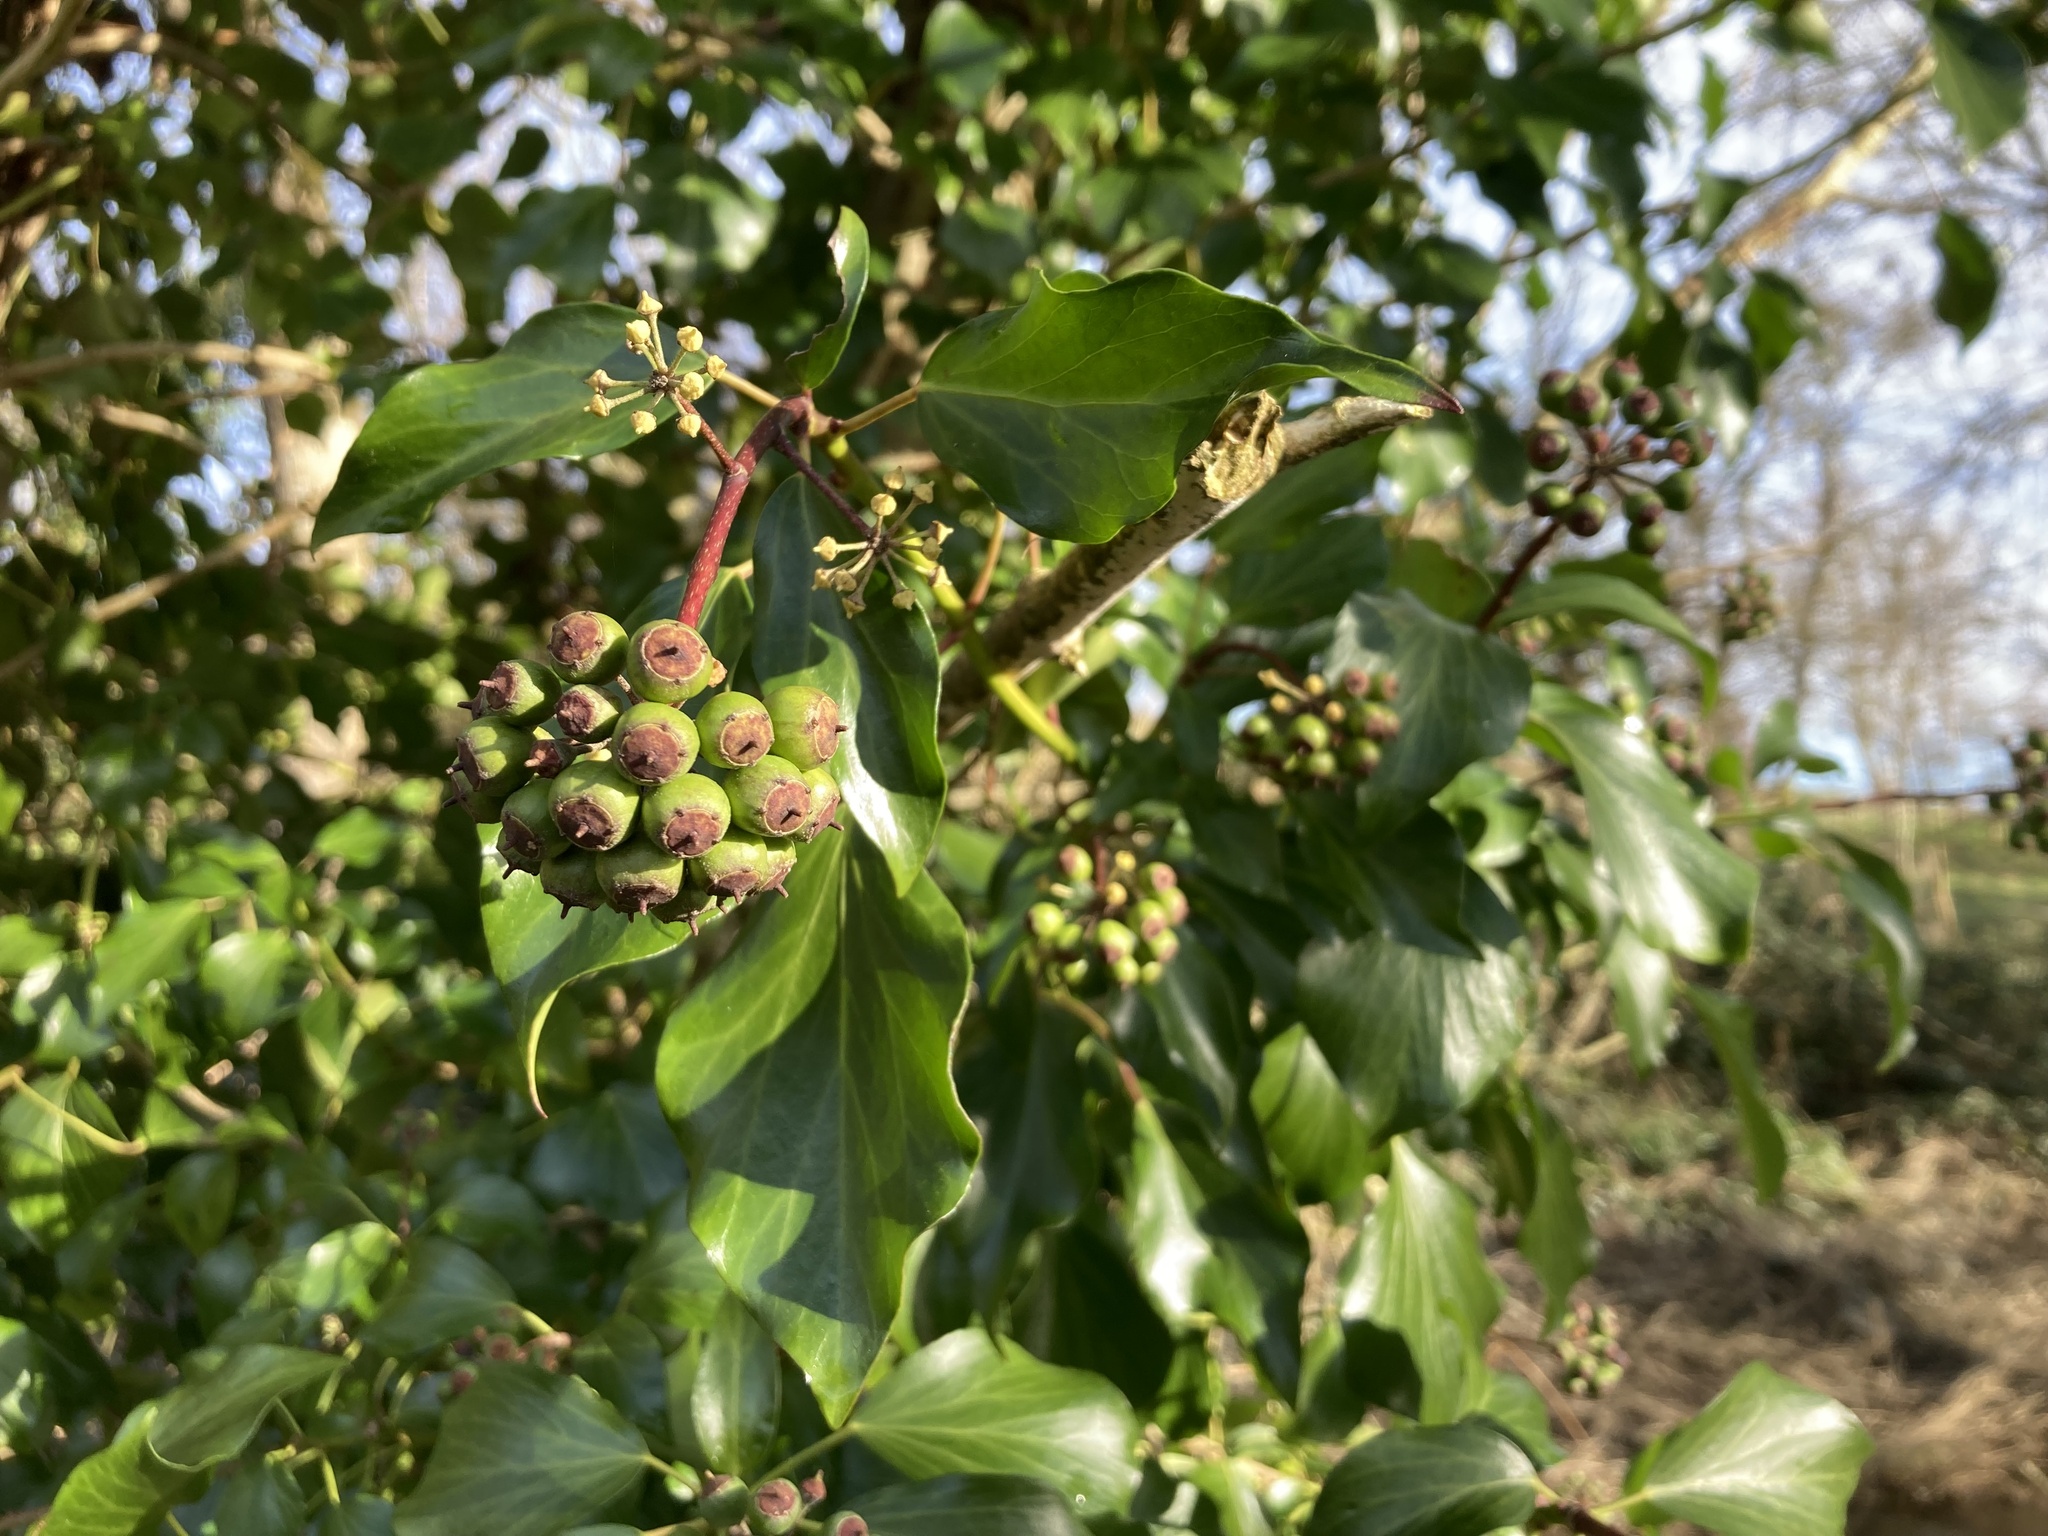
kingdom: Plantae
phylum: Tracheophyta
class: Magnoliopsida
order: Apiales
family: Araliaceae
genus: Hedera
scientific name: Hedera hibernica
